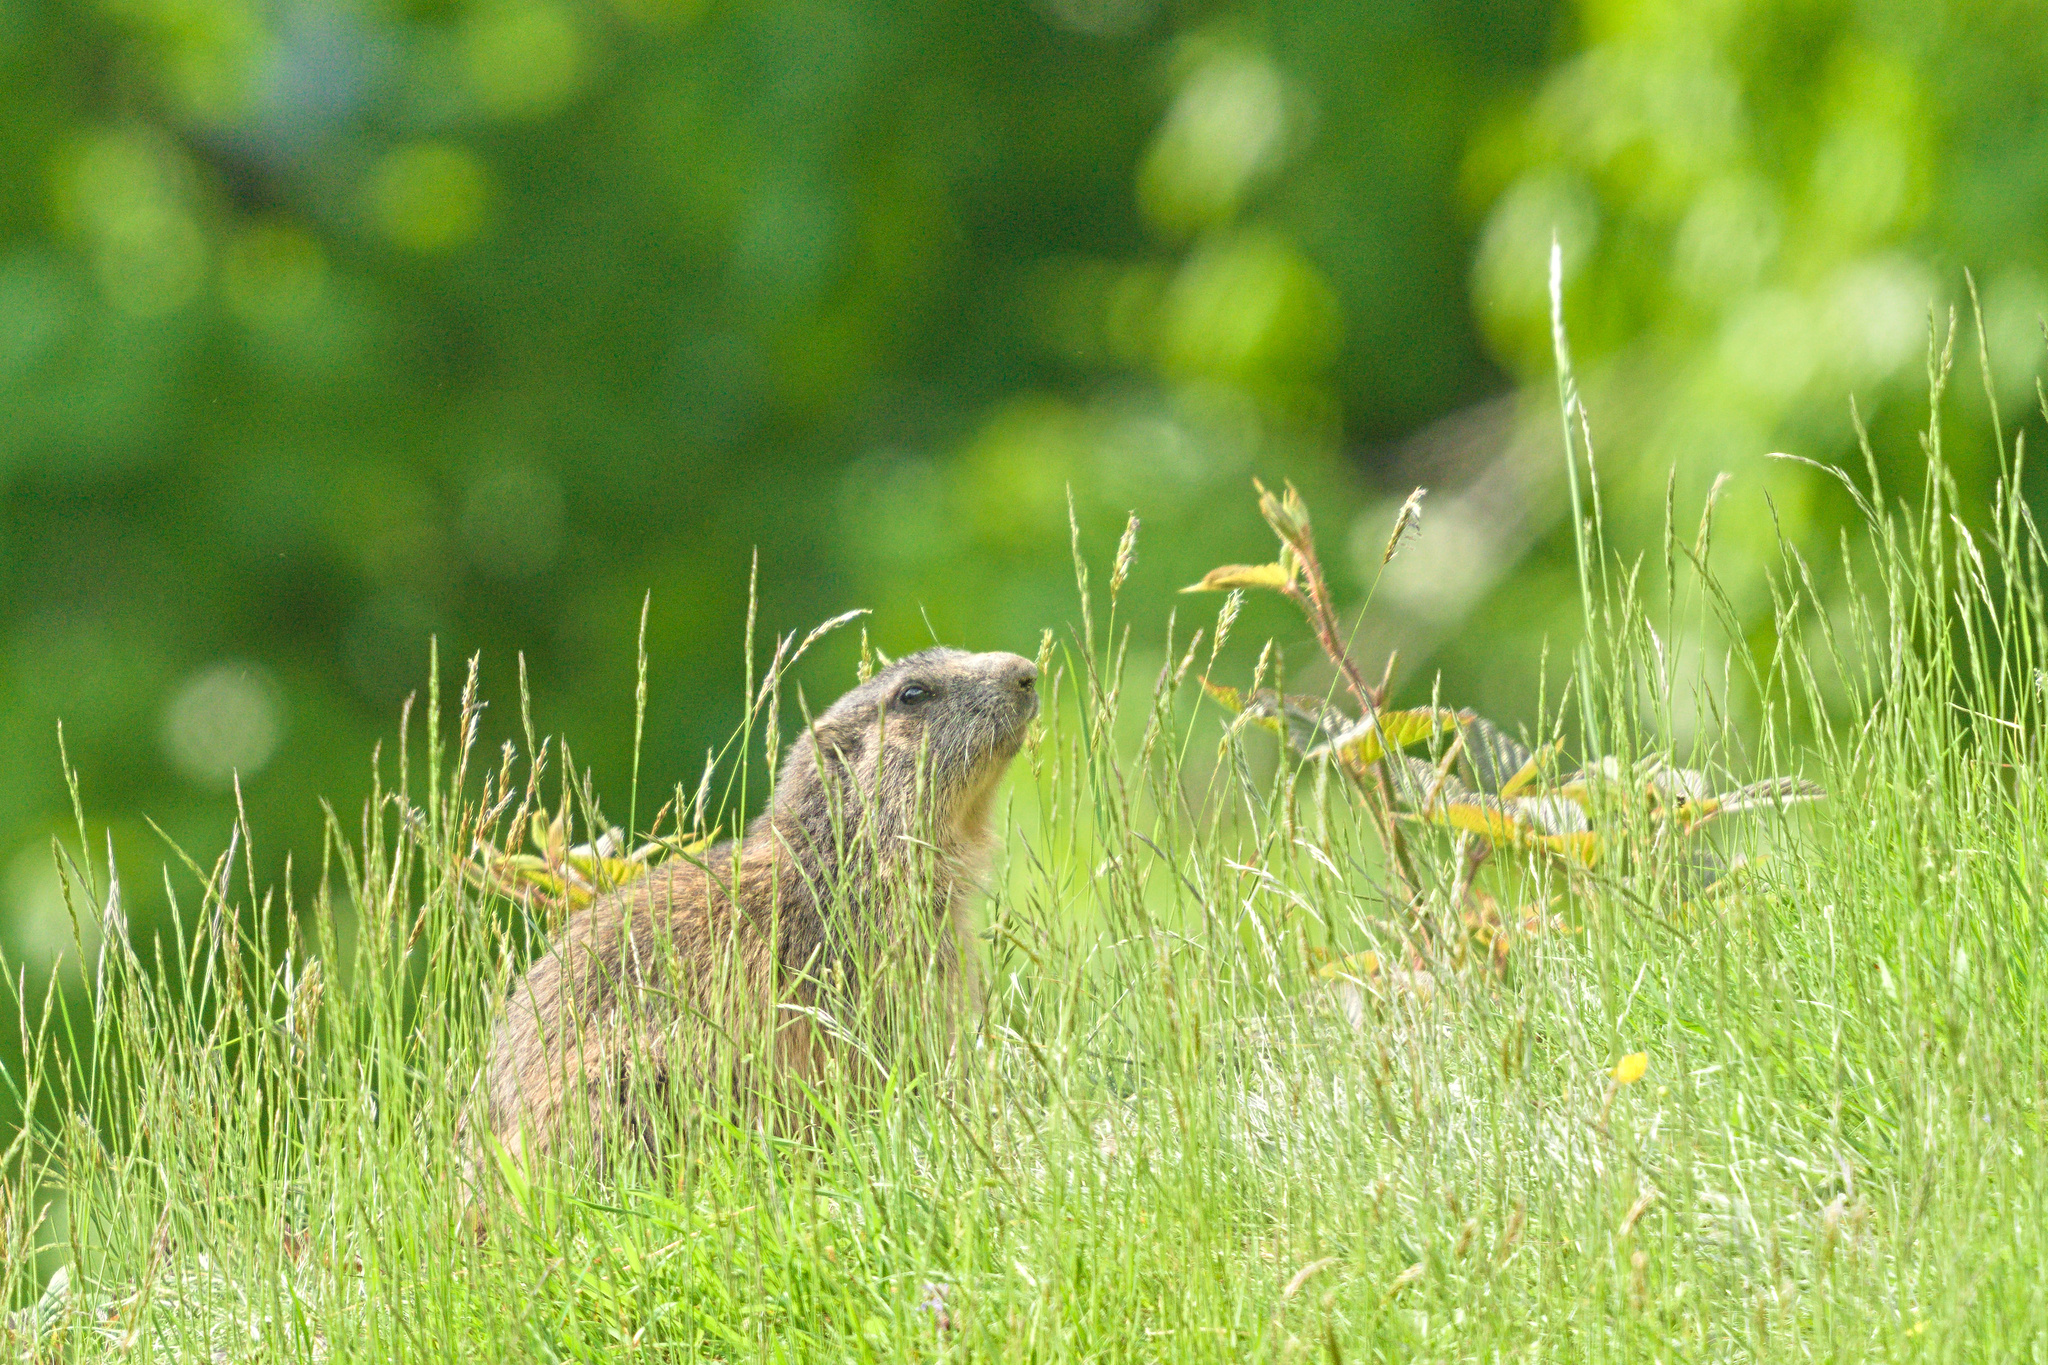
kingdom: Animalia
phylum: Chordata
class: Mammalia
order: Rodentia
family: Sciuridae
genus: Marmota
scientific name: Marmota marmota
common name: Alpine marmot
